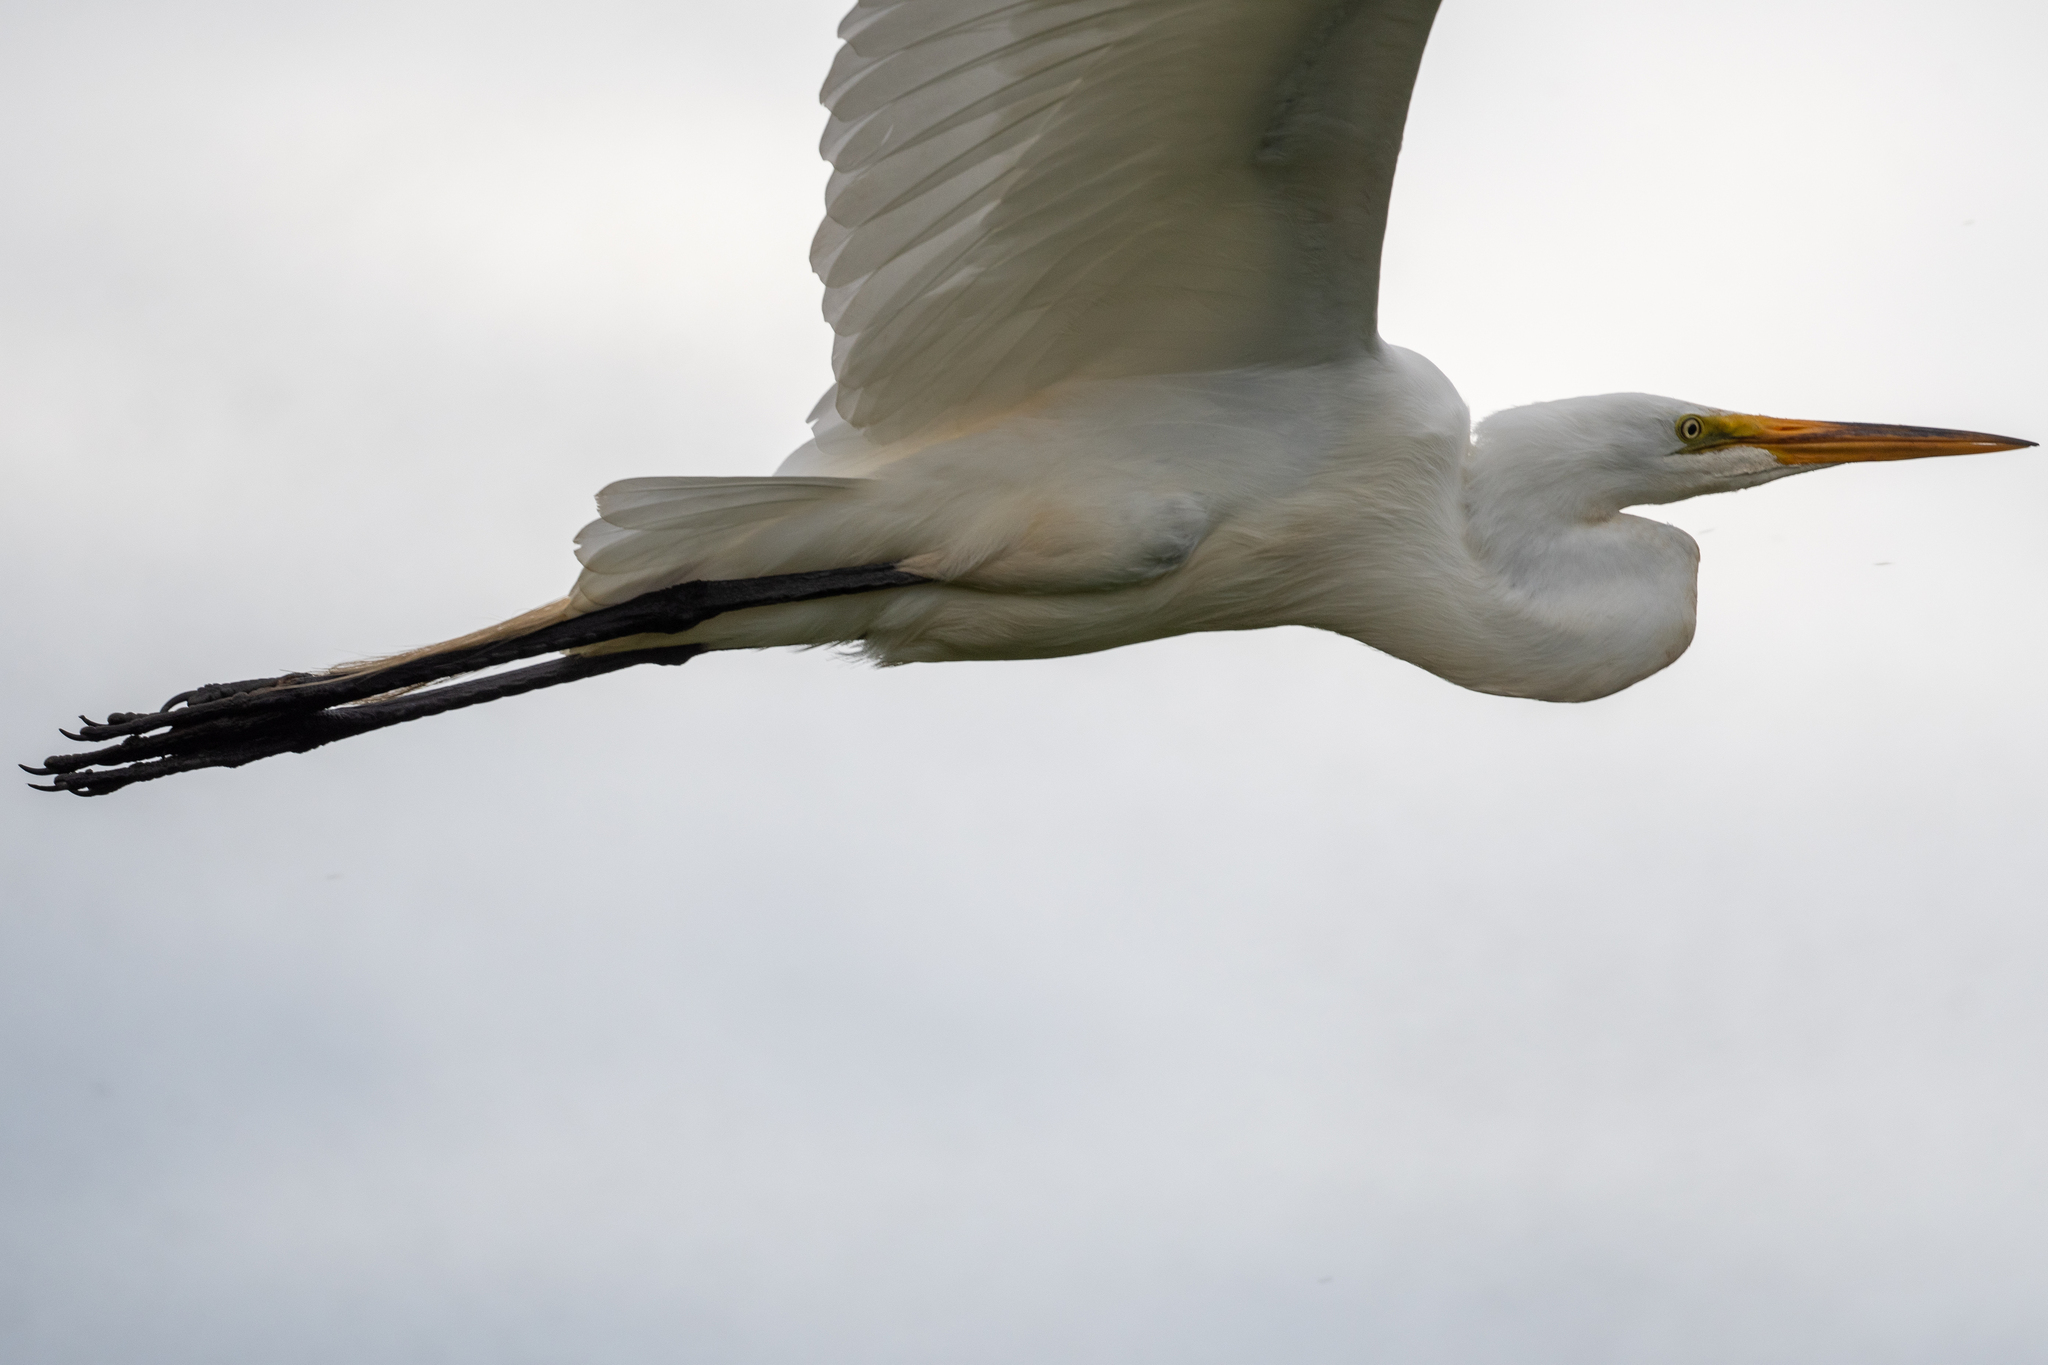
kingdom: Animalia
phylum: Chordata
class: Aves
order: Pelecaniformes
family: Ardeidae
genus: Ardea
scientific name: Ardea alba
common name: Great egret
